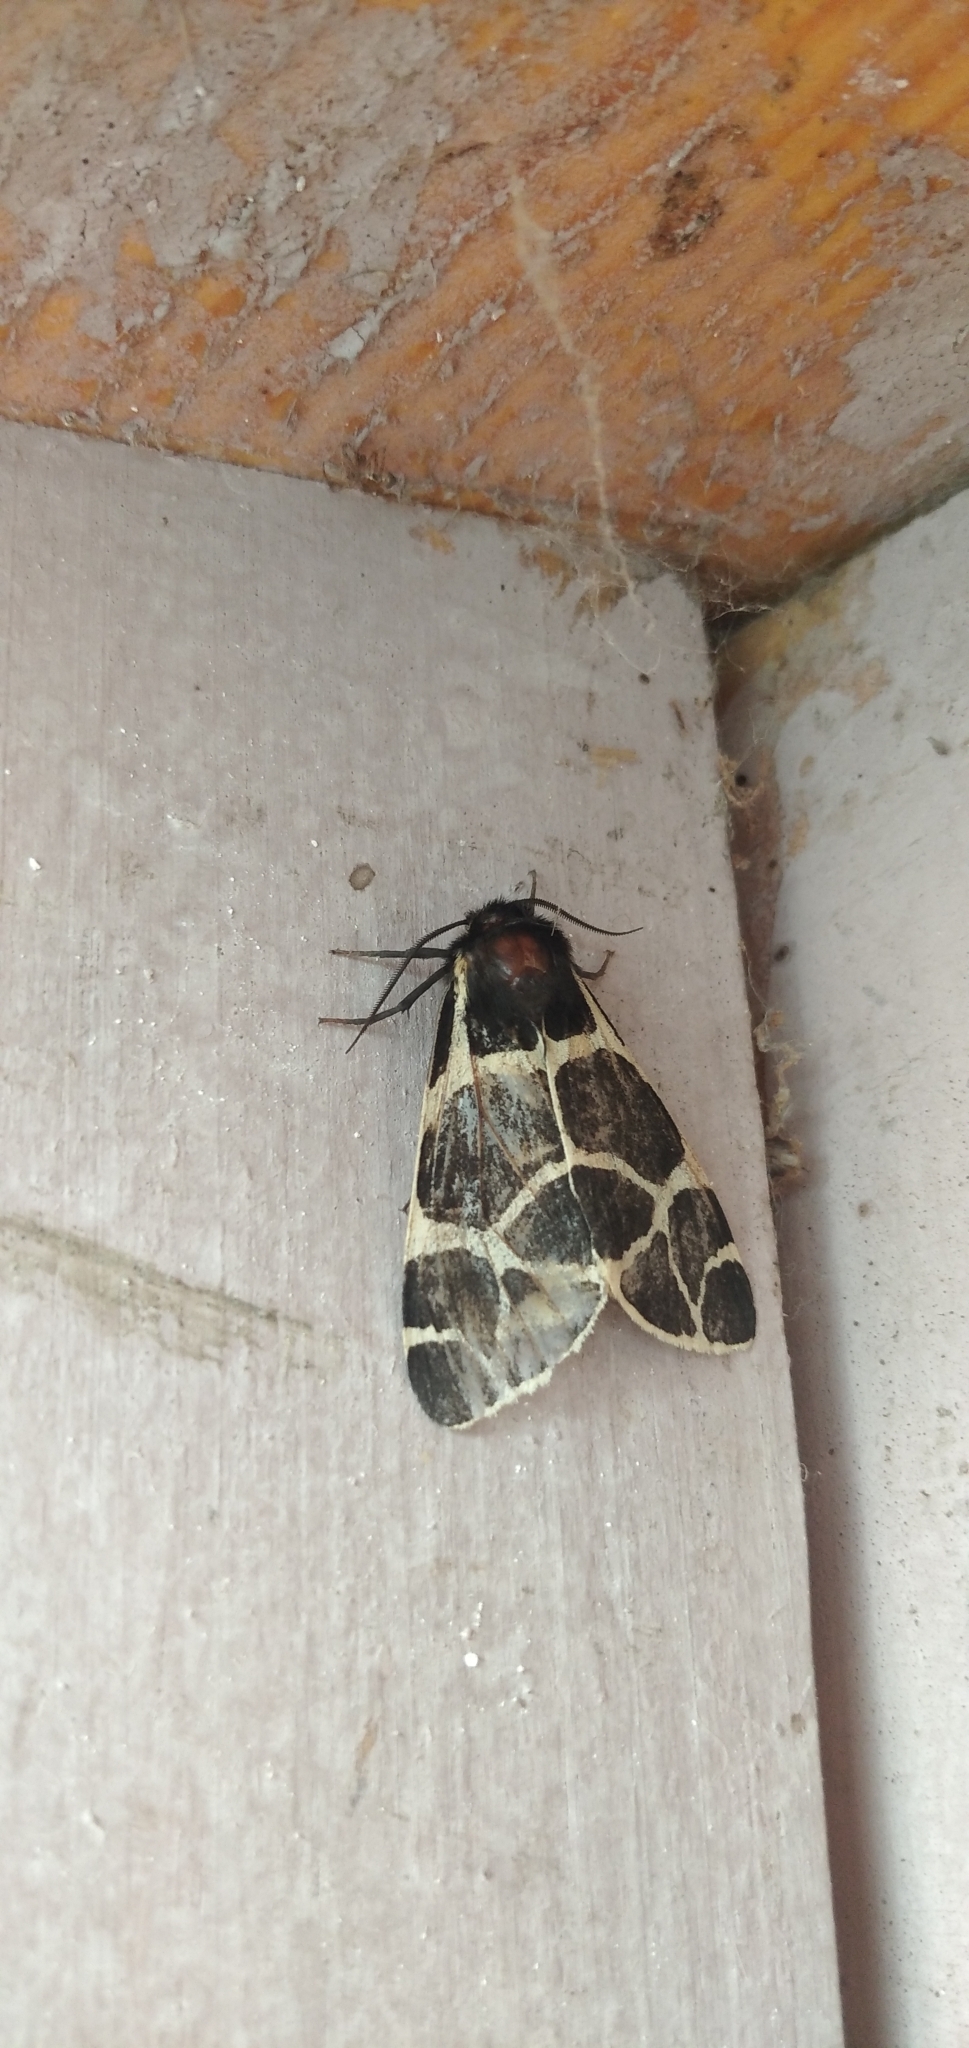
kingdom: Animalia
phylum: Arthropoda
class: Insecta
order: Lepidoptera
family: Erebidae
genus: Arctia
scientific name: Arctia flavia
